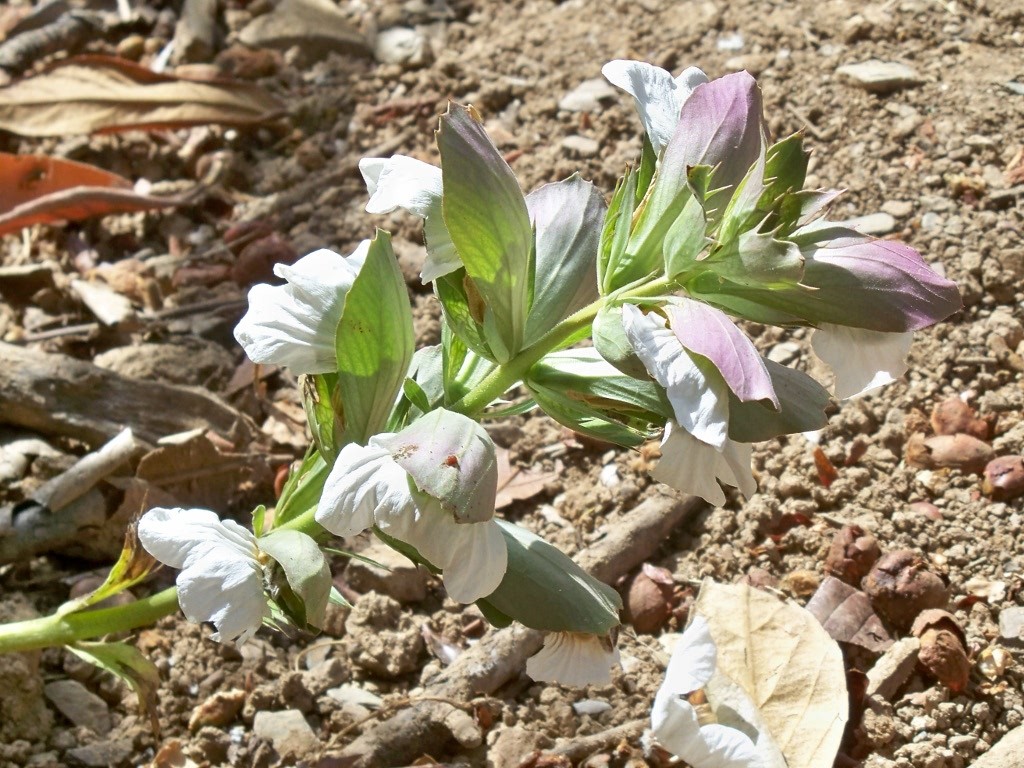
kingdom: Plantae
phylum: Tracheophyta
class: Magnoliopsida
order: Lamiales
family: Acanthaceae
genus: Acanthus
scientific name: Acanthus mollis
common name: Bear's-breech
